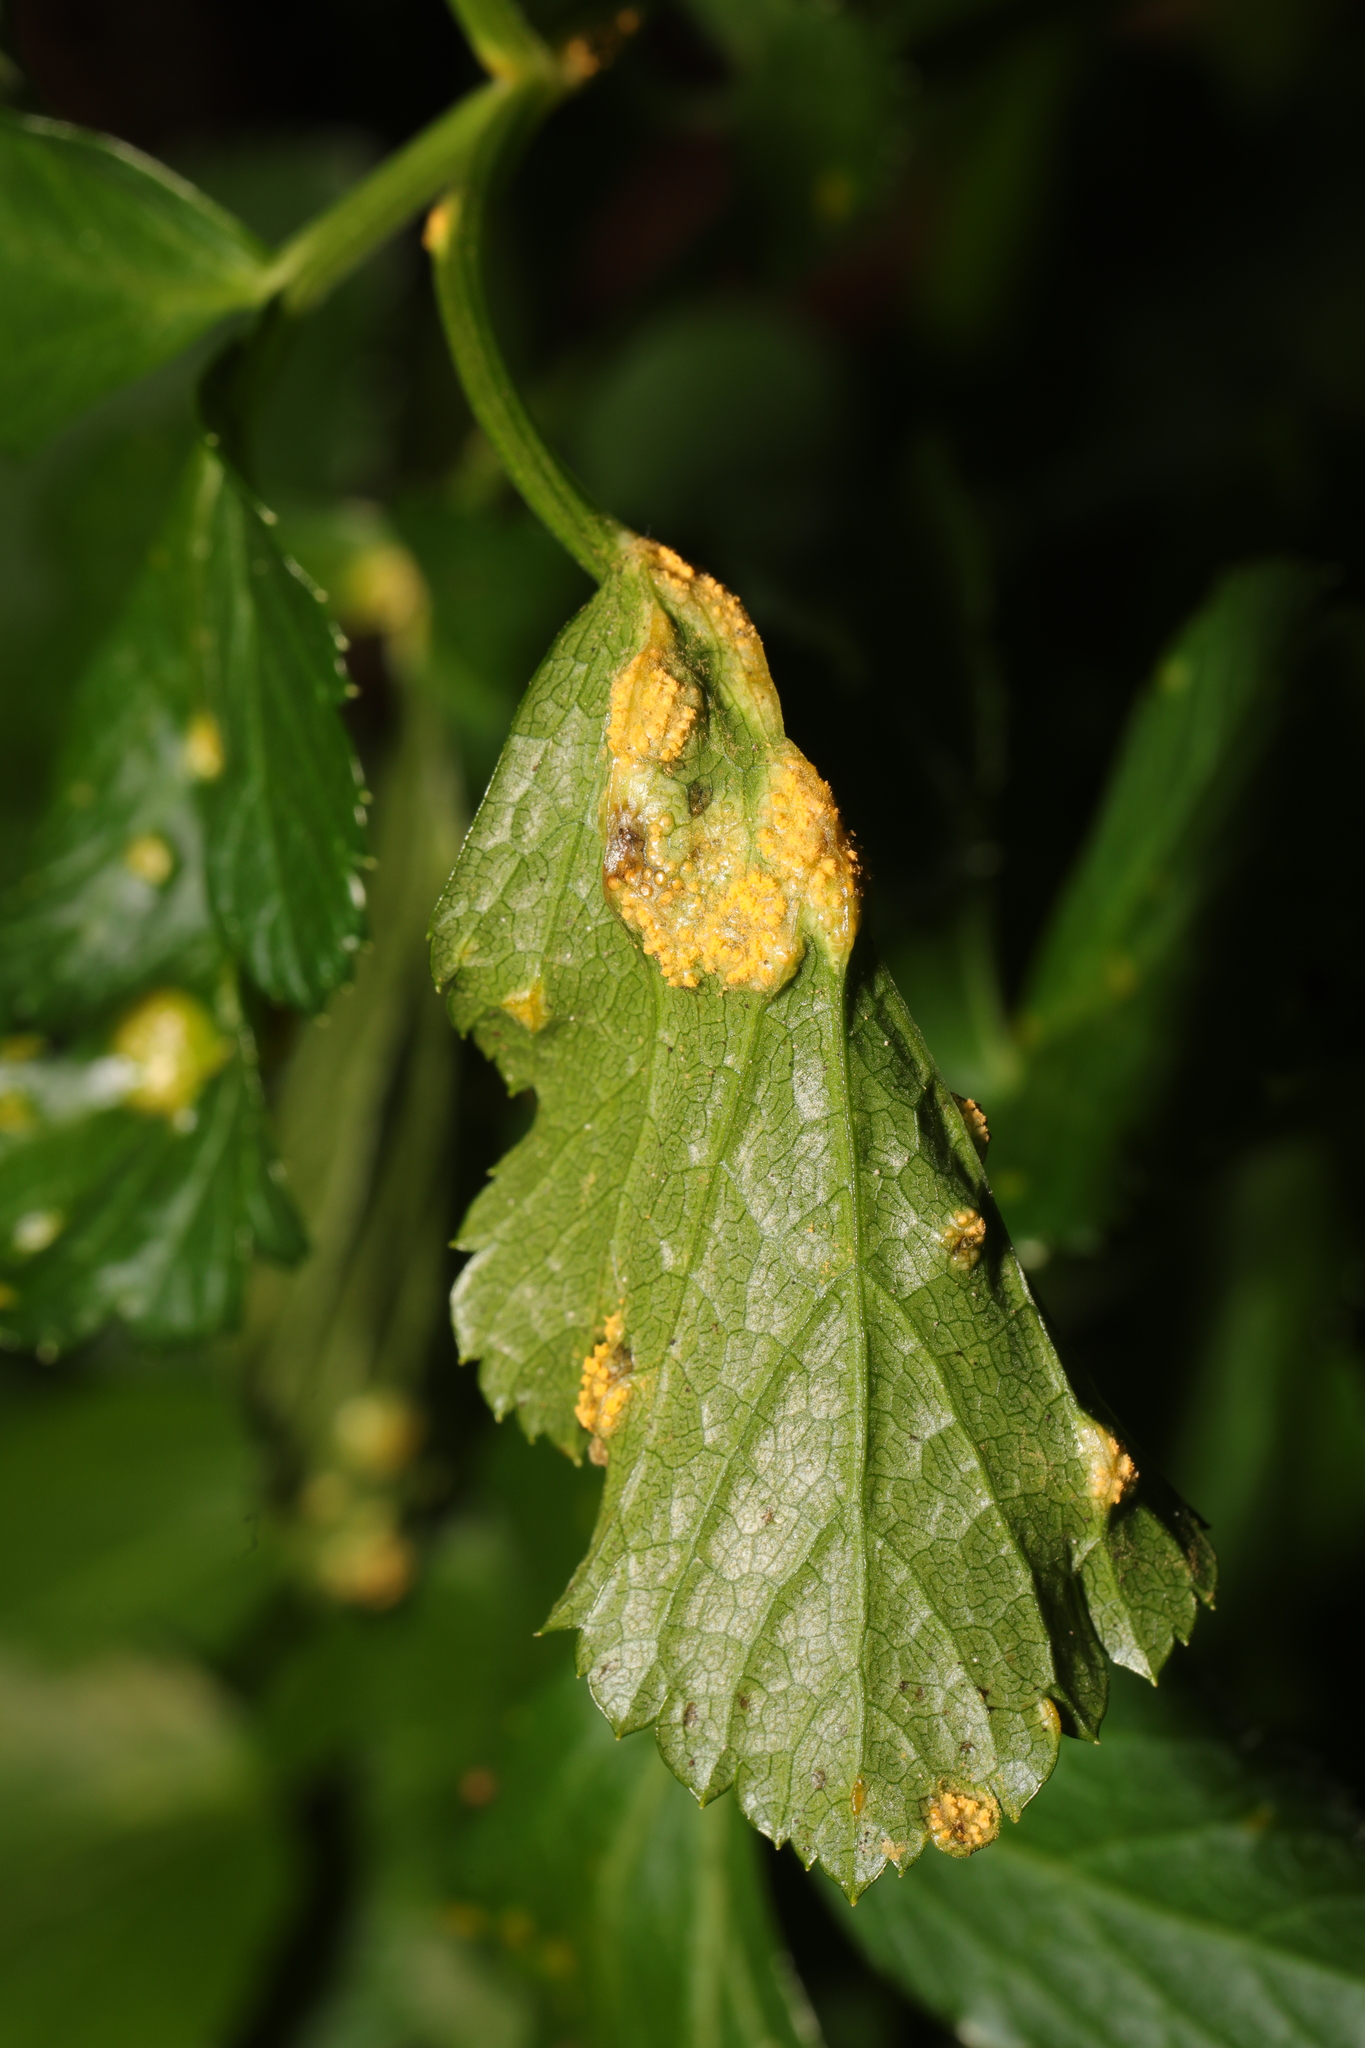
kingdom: Fungi
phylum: Basidiomycota
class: Pucciniomycetes
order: Pucciniales
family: Pucciniaceae
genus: Puccinia
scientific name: Puccinia smyrnii
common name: Alexanders rust
